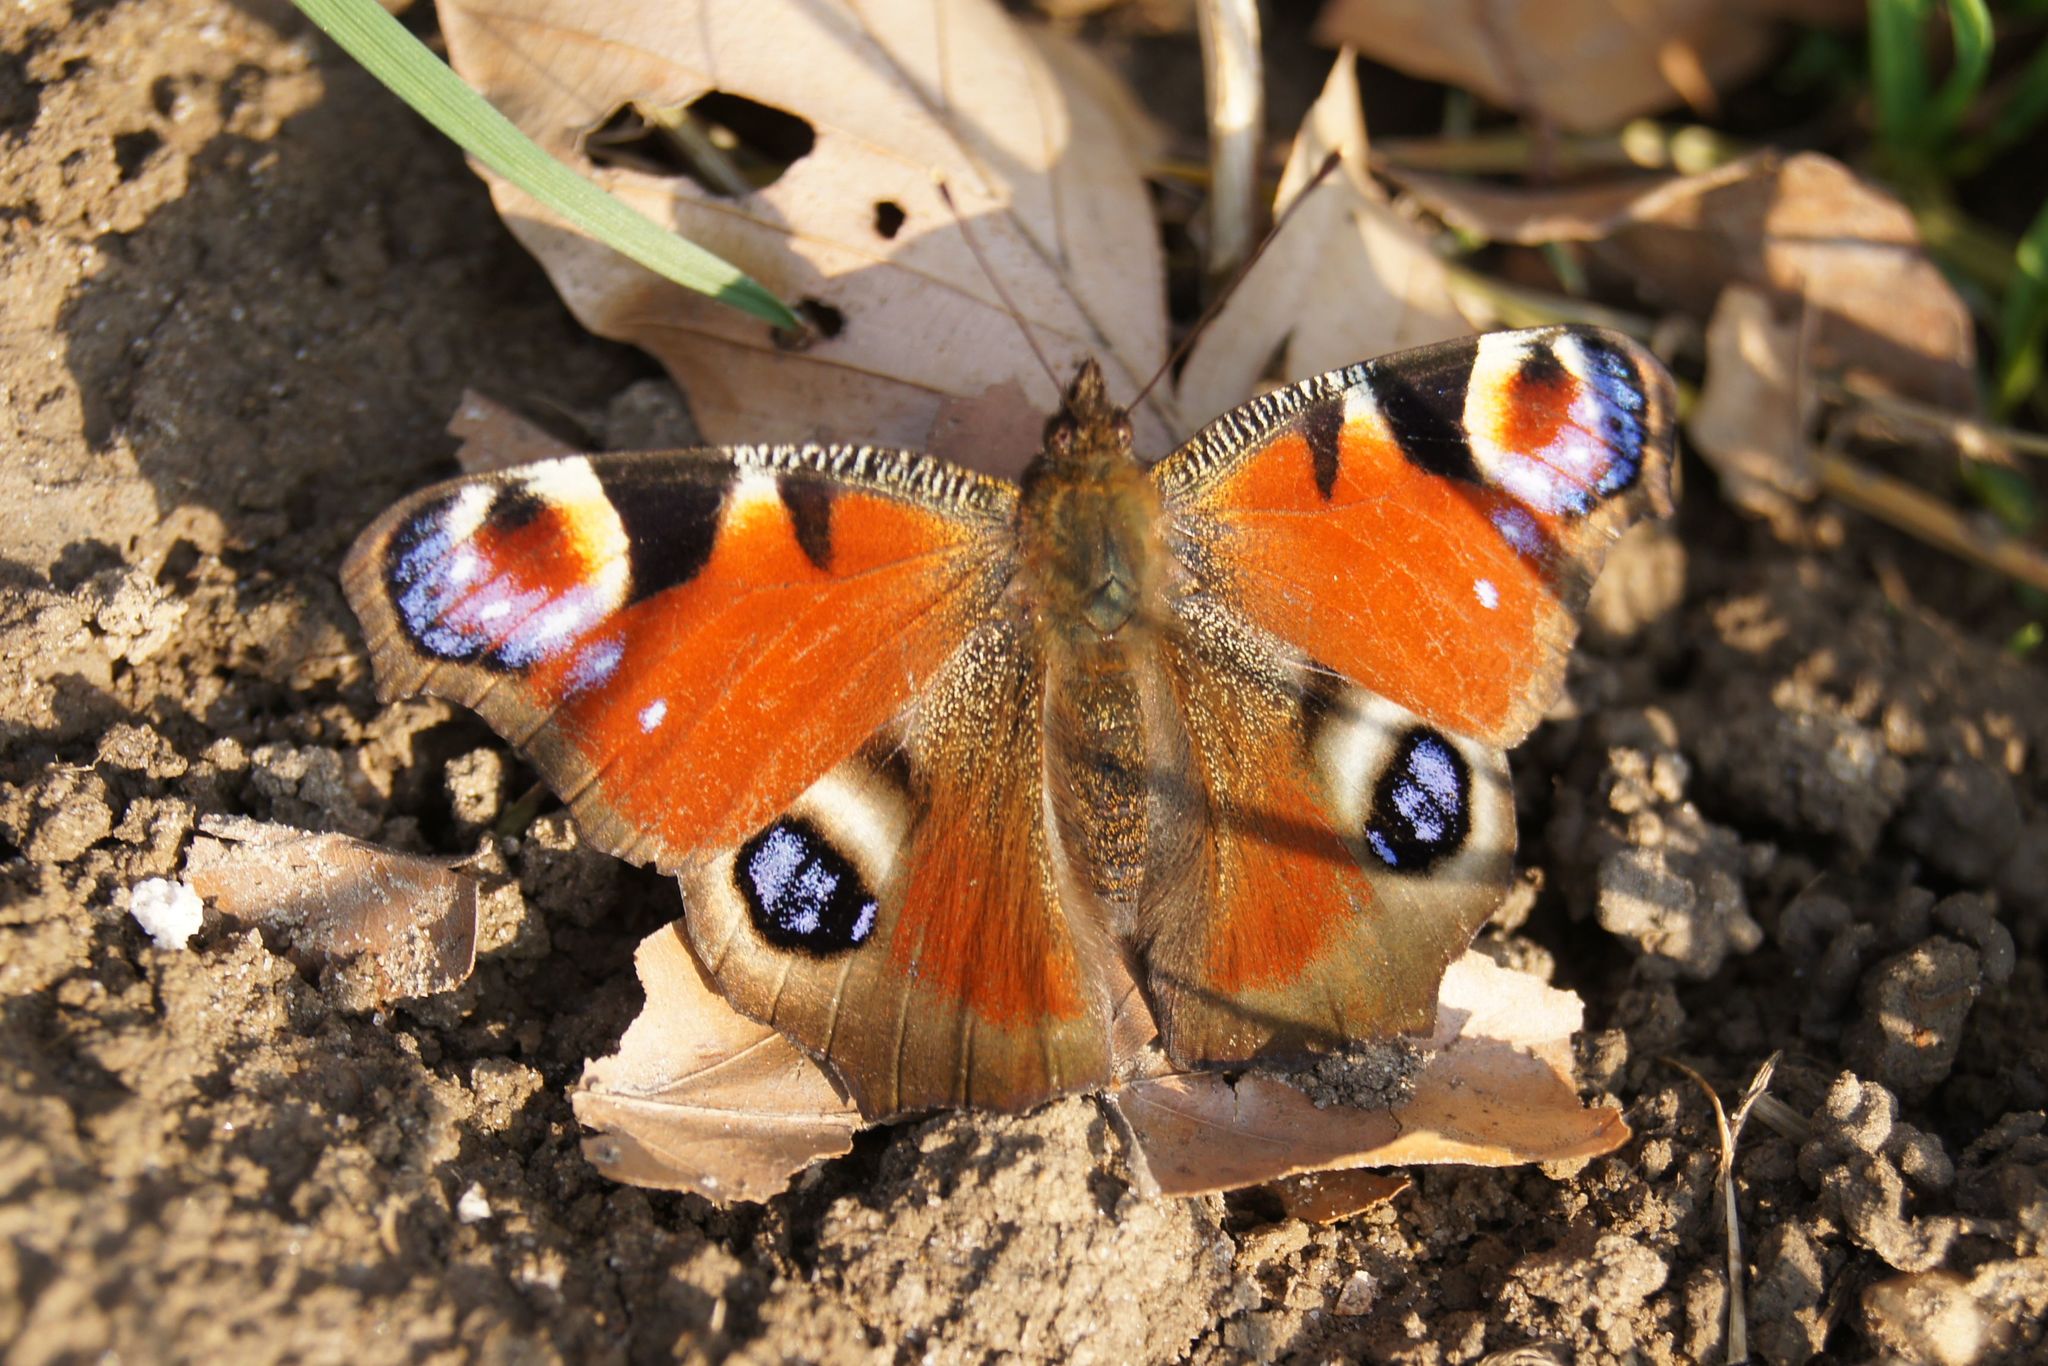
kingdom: Animalia
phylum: Arthropoda
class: Insecta
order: Lepidoptera
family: Nymphalidae
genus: Aglais
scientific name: Aglais io
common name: Peacock
